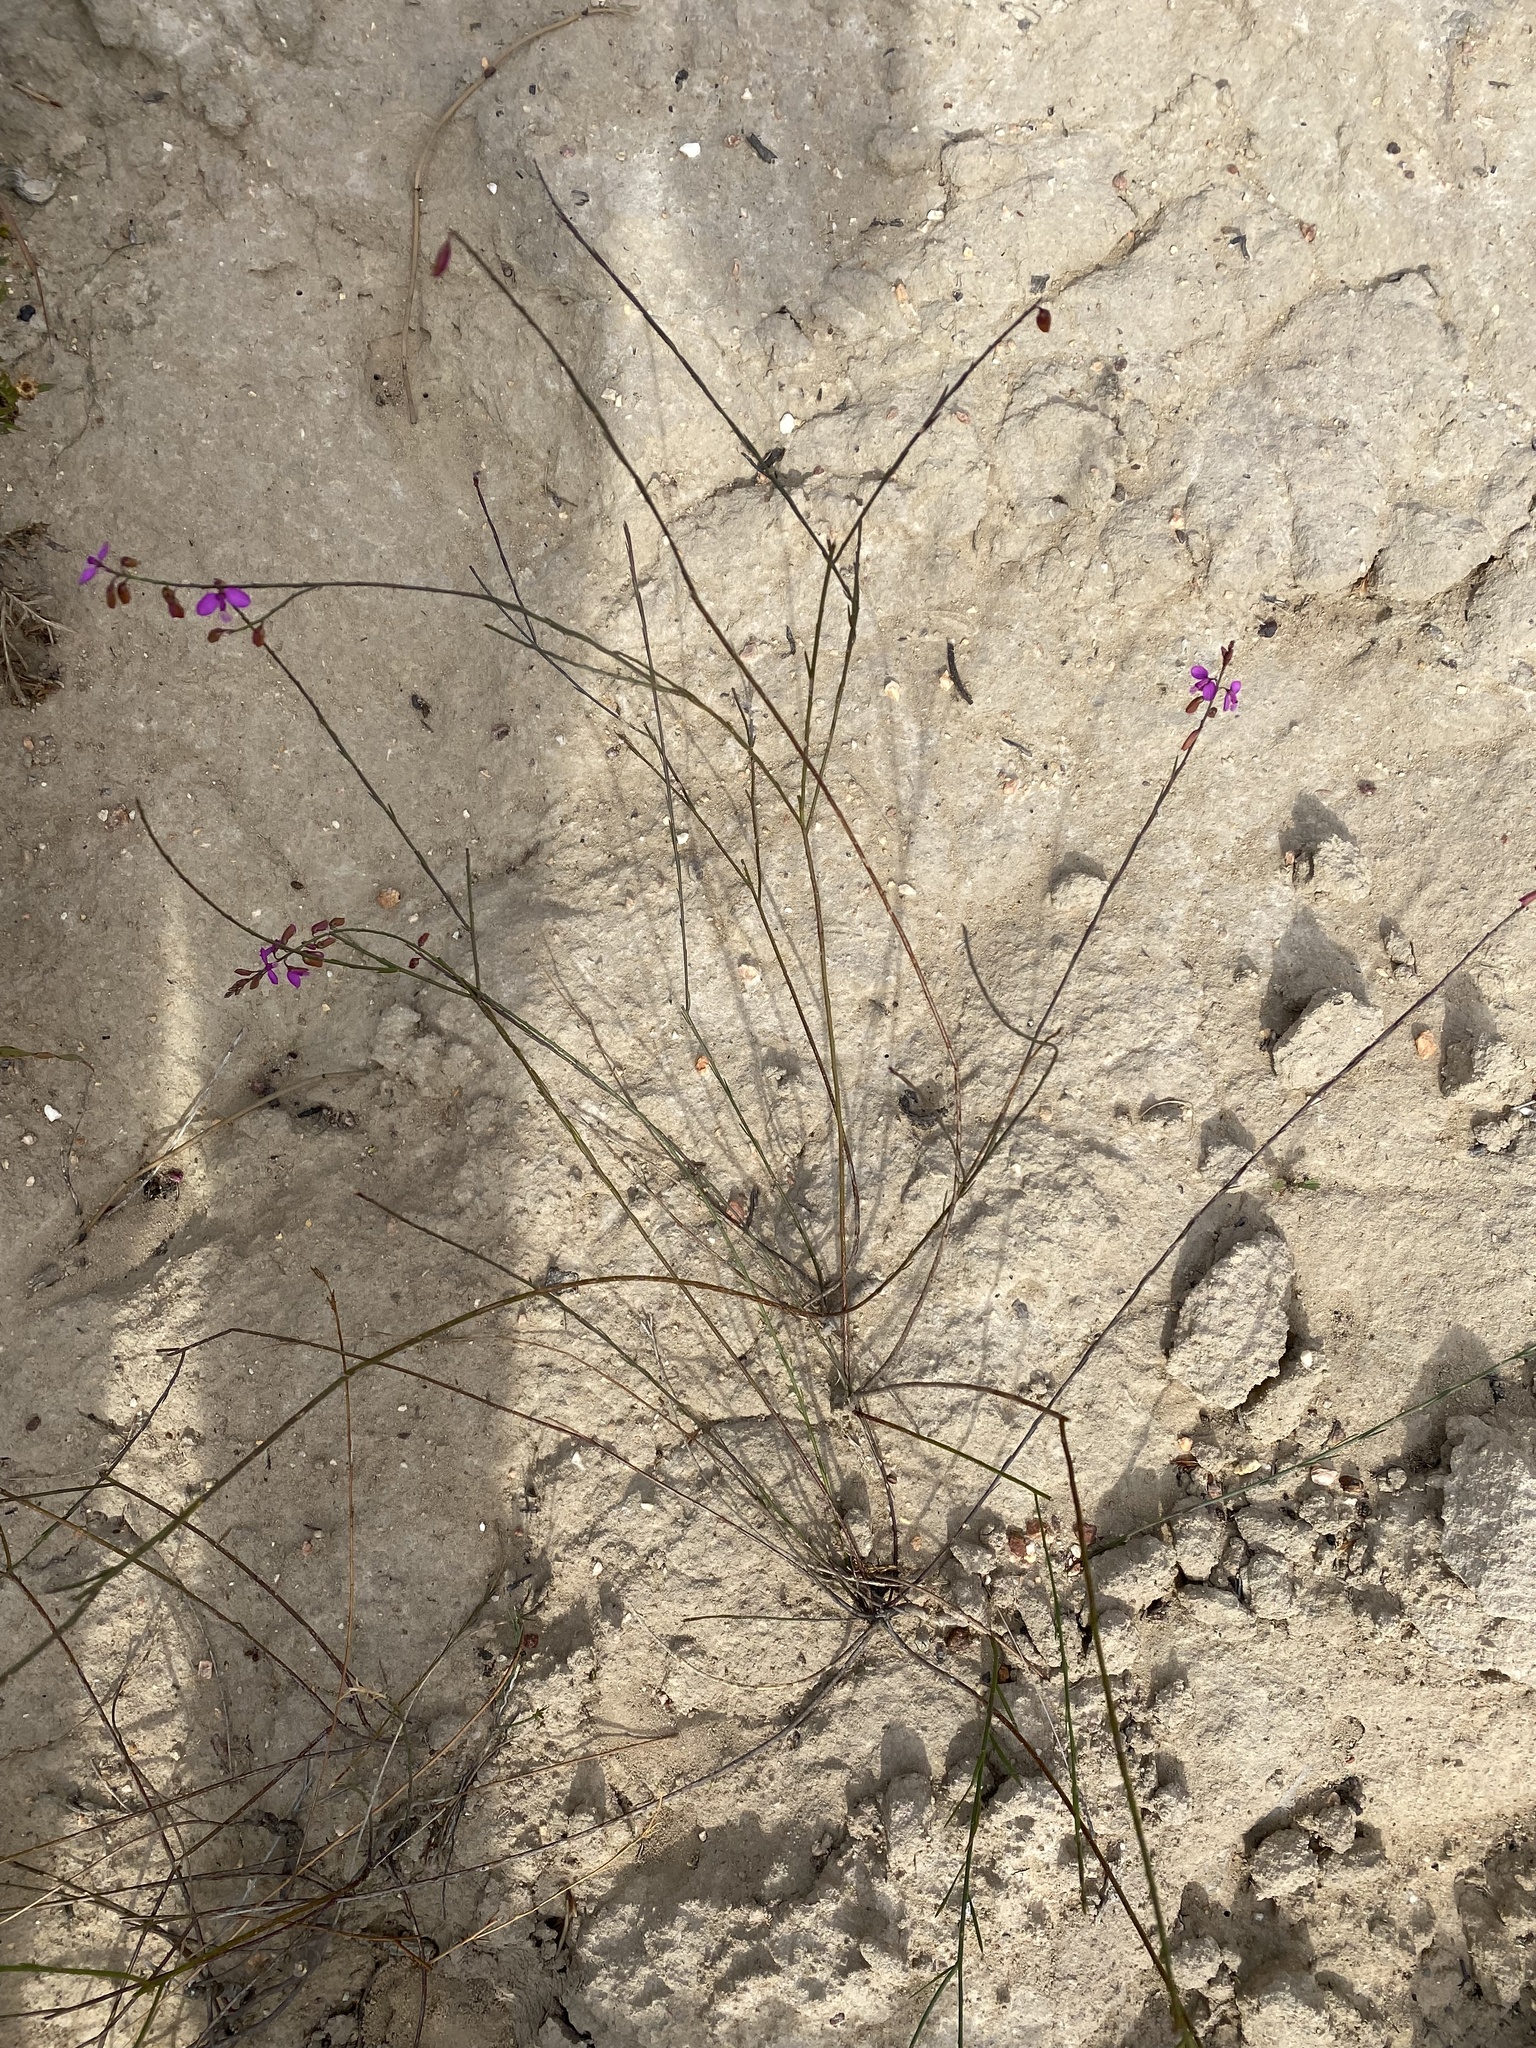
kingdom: Plantae
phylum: Tracheophyta
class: Magnoliopsida
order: Fabales
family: Polygalaceae
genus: Polygala
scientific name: Polygala garcini
